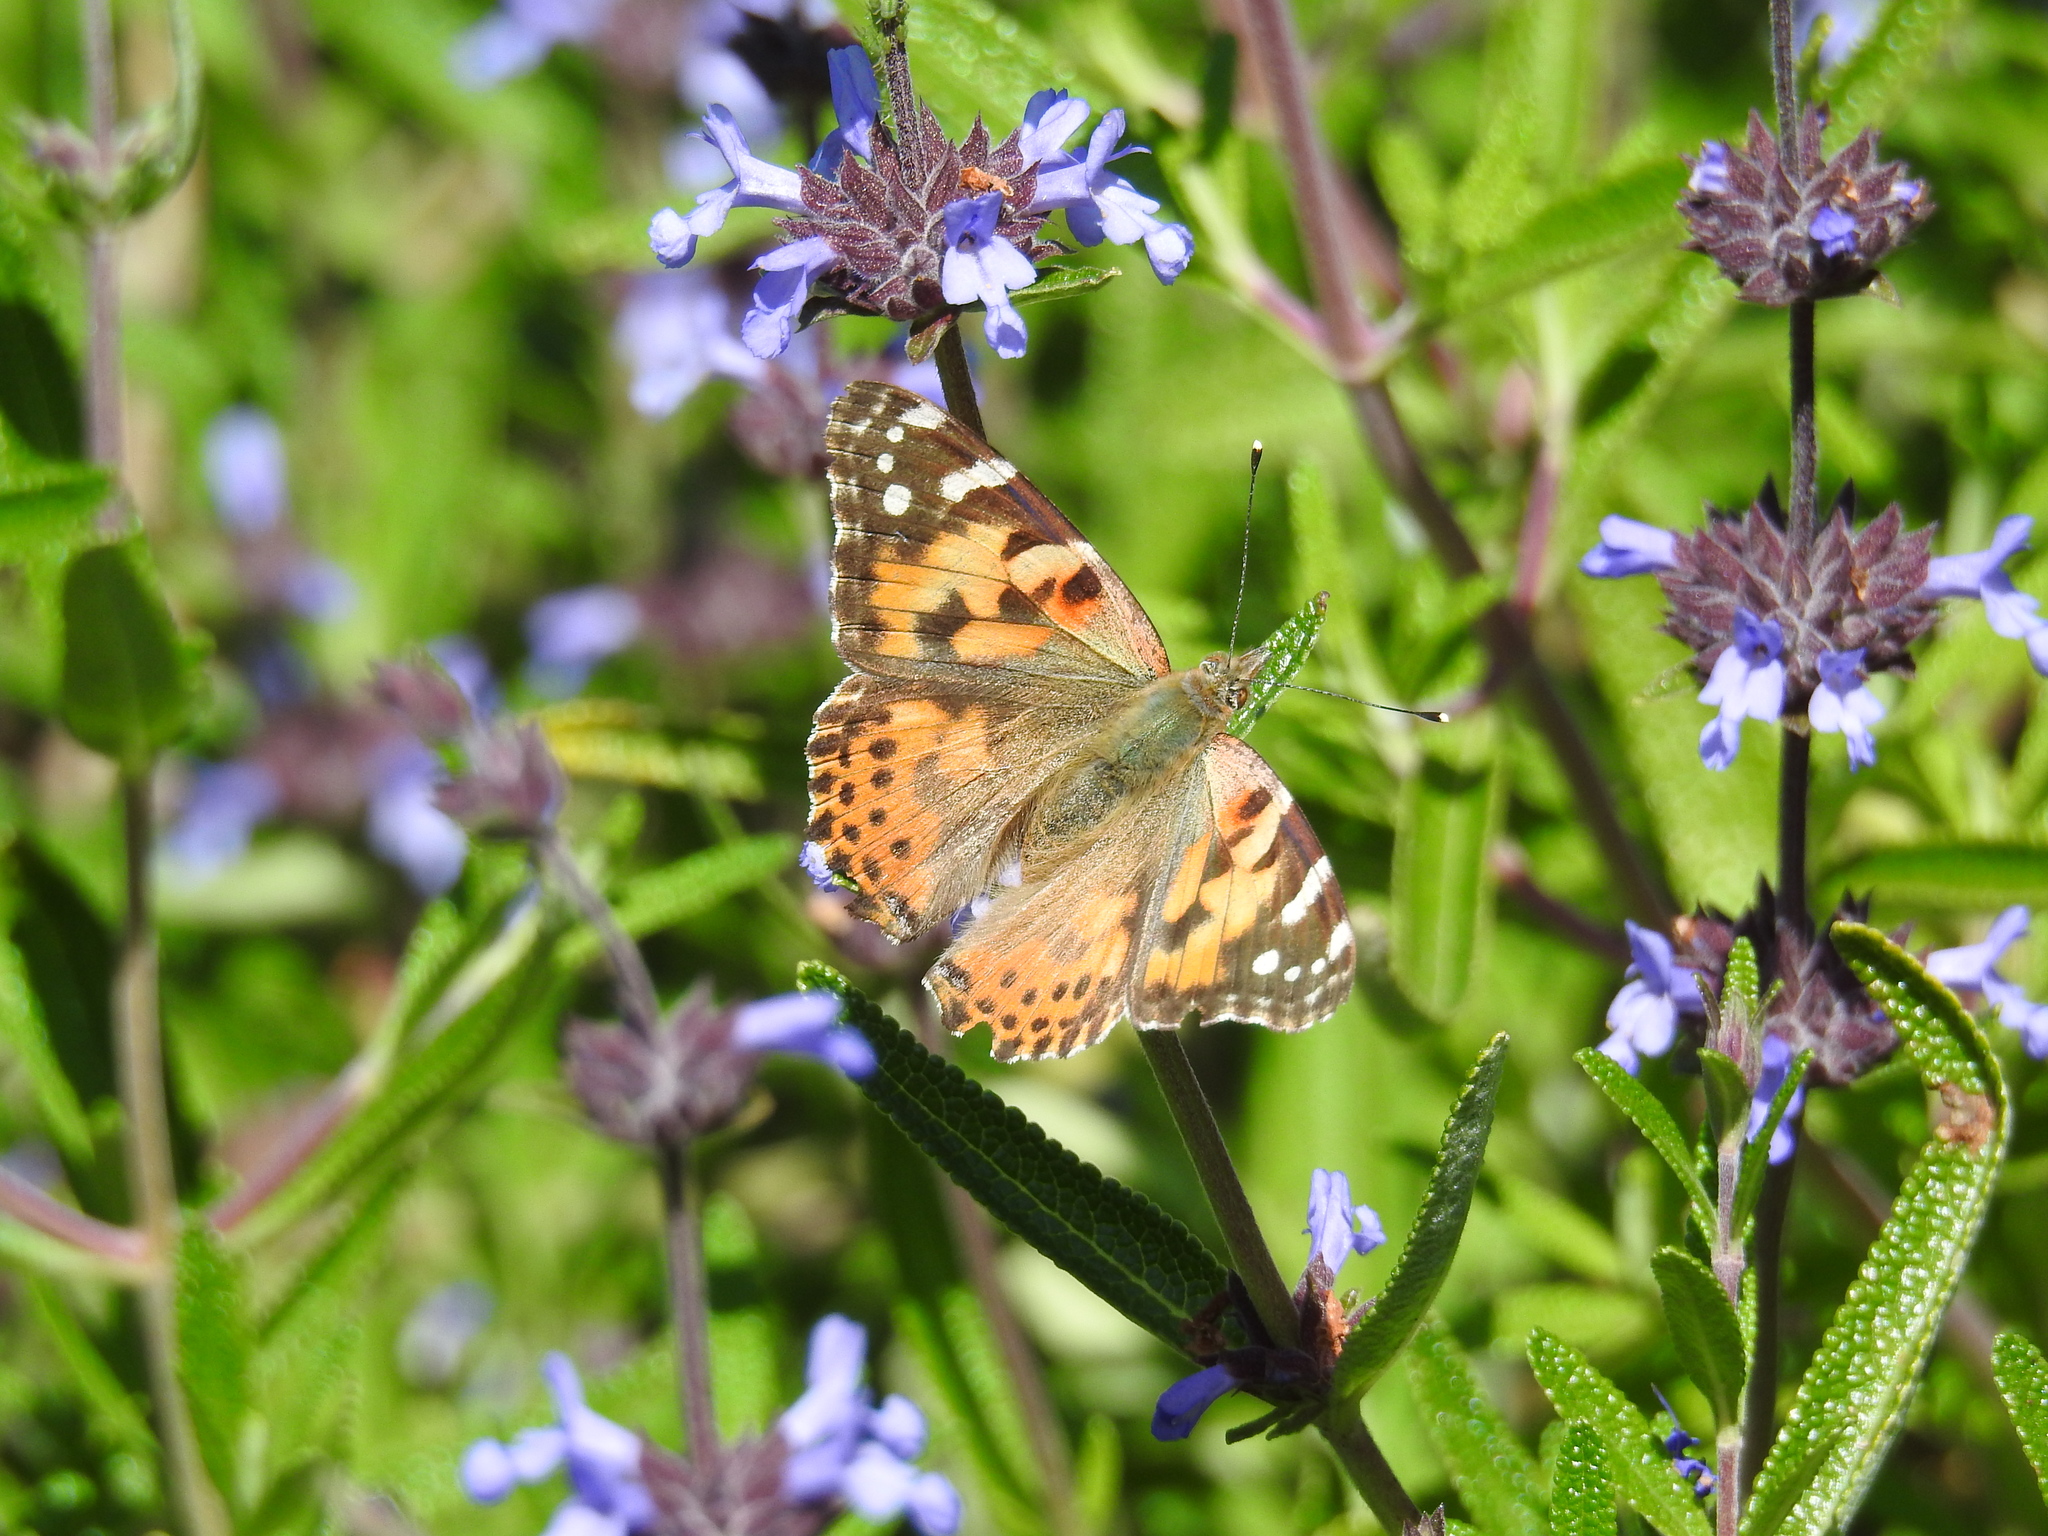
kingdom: Animalia
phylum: Arthropoda
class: Insecta
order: Lepidoptera
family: Nymphalidae
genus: Vanessa
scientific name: Vanessa cardui
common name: Painted lady
